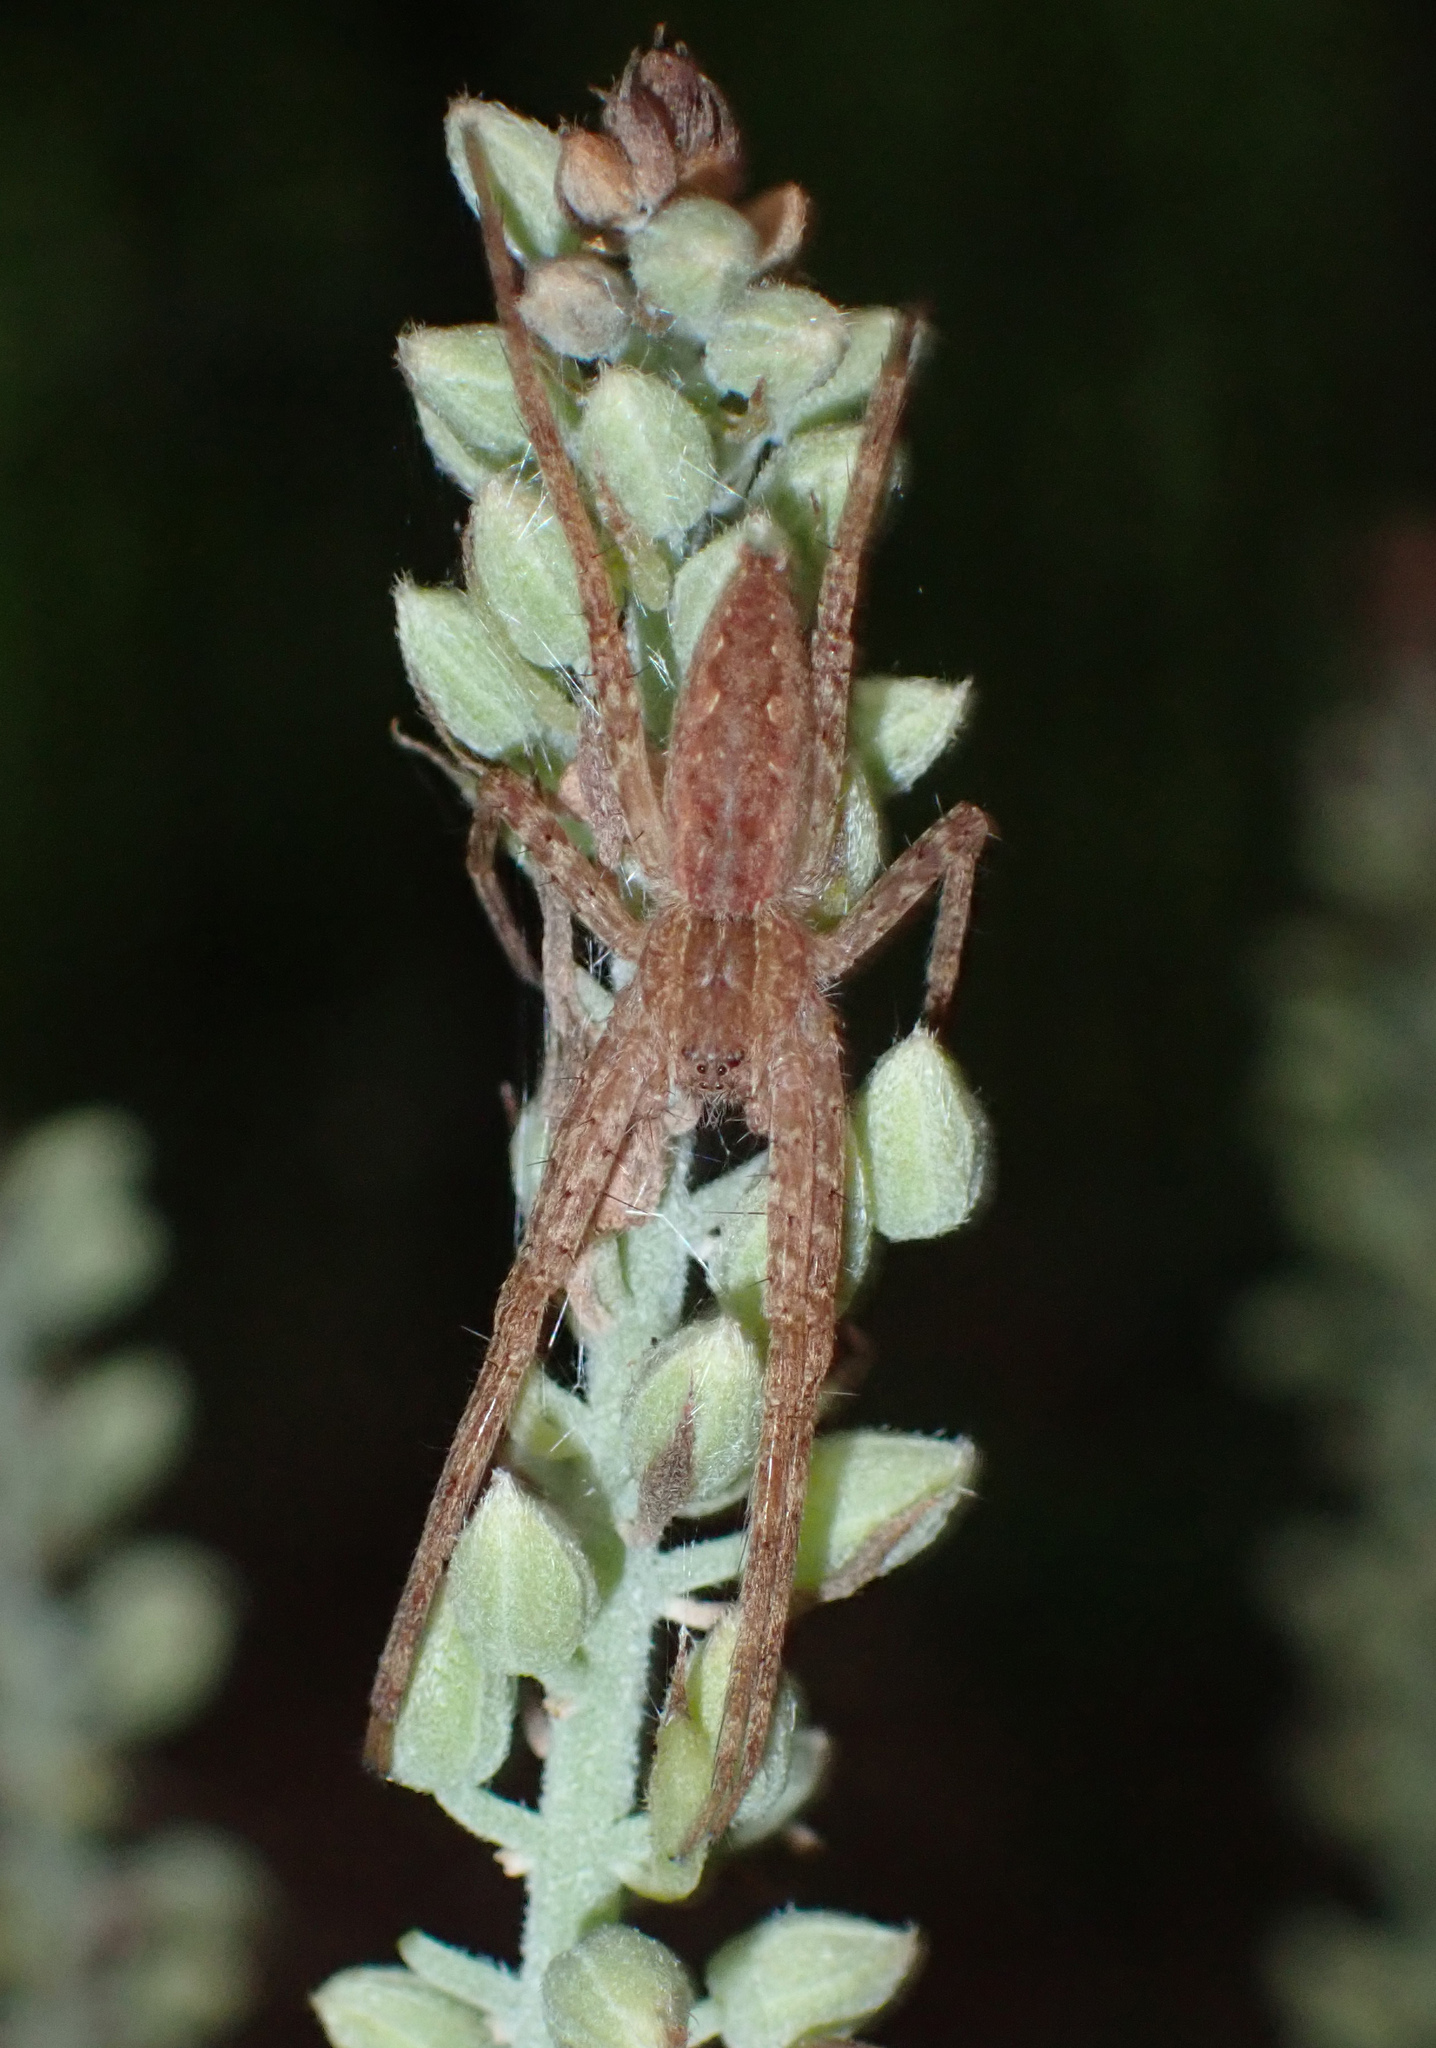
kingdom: Animalia
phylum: Arthropoda
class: Arachnida
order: Araneae
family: Pisauridae
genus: Pisaurina
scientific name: Pisaurina mira
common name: American nursery web spider
